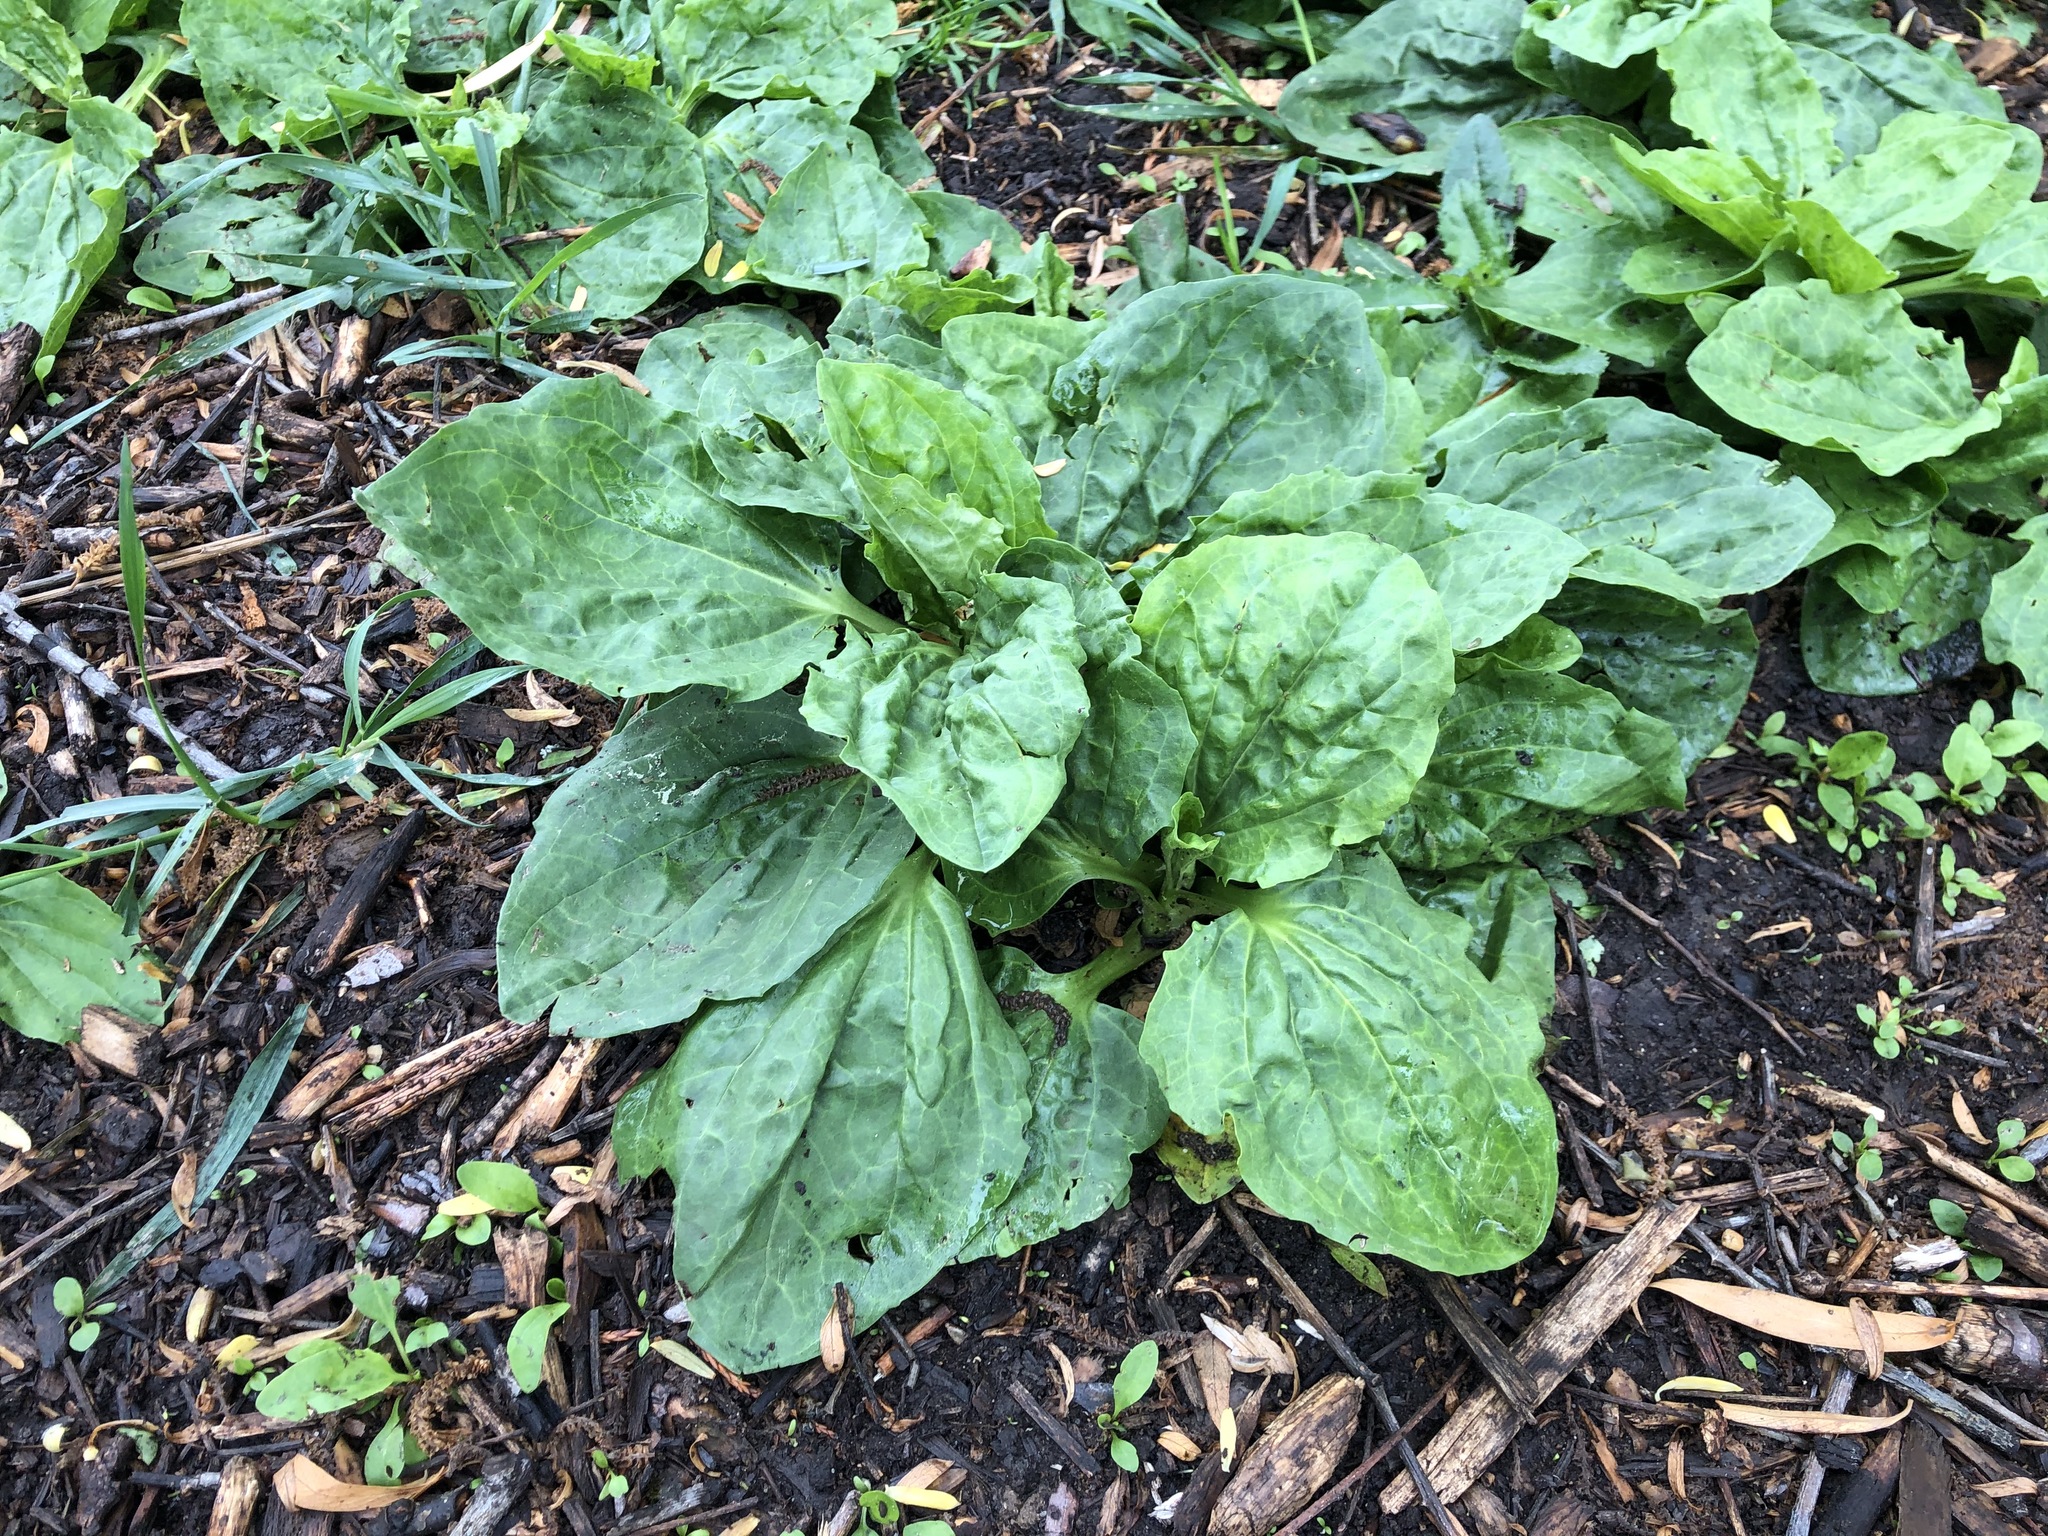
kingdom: Plantae
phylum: Tracheophyta
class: Magnoliopsida
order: Lamiales
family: Plantaginaceae
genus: Plantago
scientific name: Plantago major
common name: Common plantain
